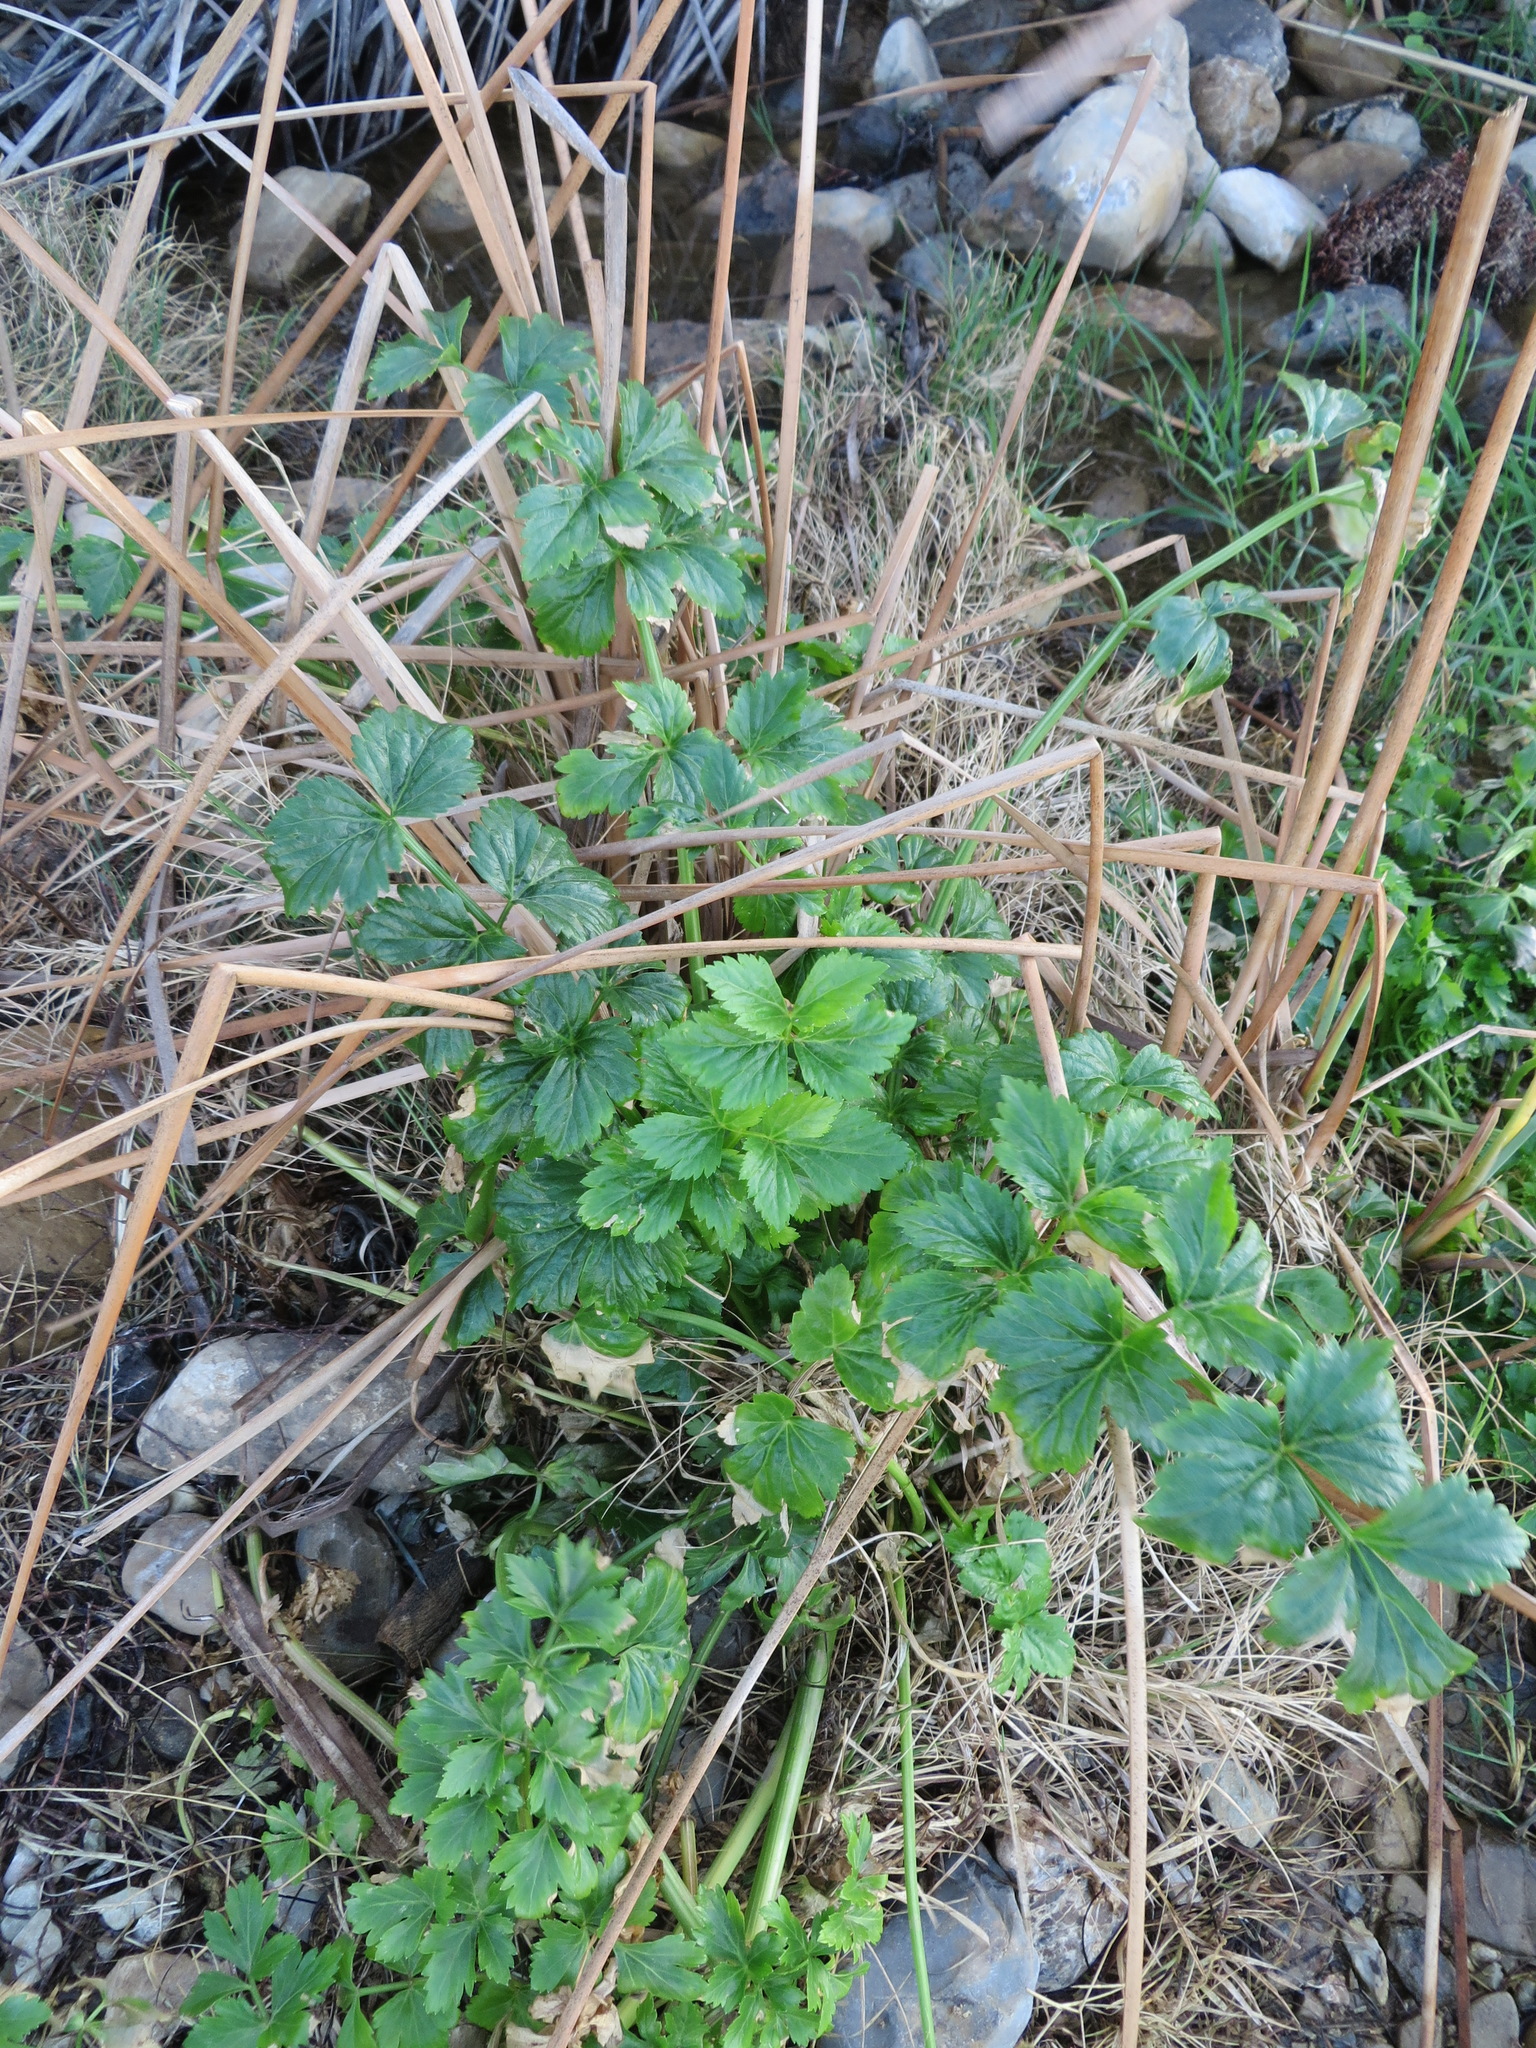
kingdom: Plantae
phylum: Tracheophyta
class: Magnoliopsida
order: Apiales
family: Apiaceae
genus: Apium
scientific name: Apium graveolens
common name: Wild celery
